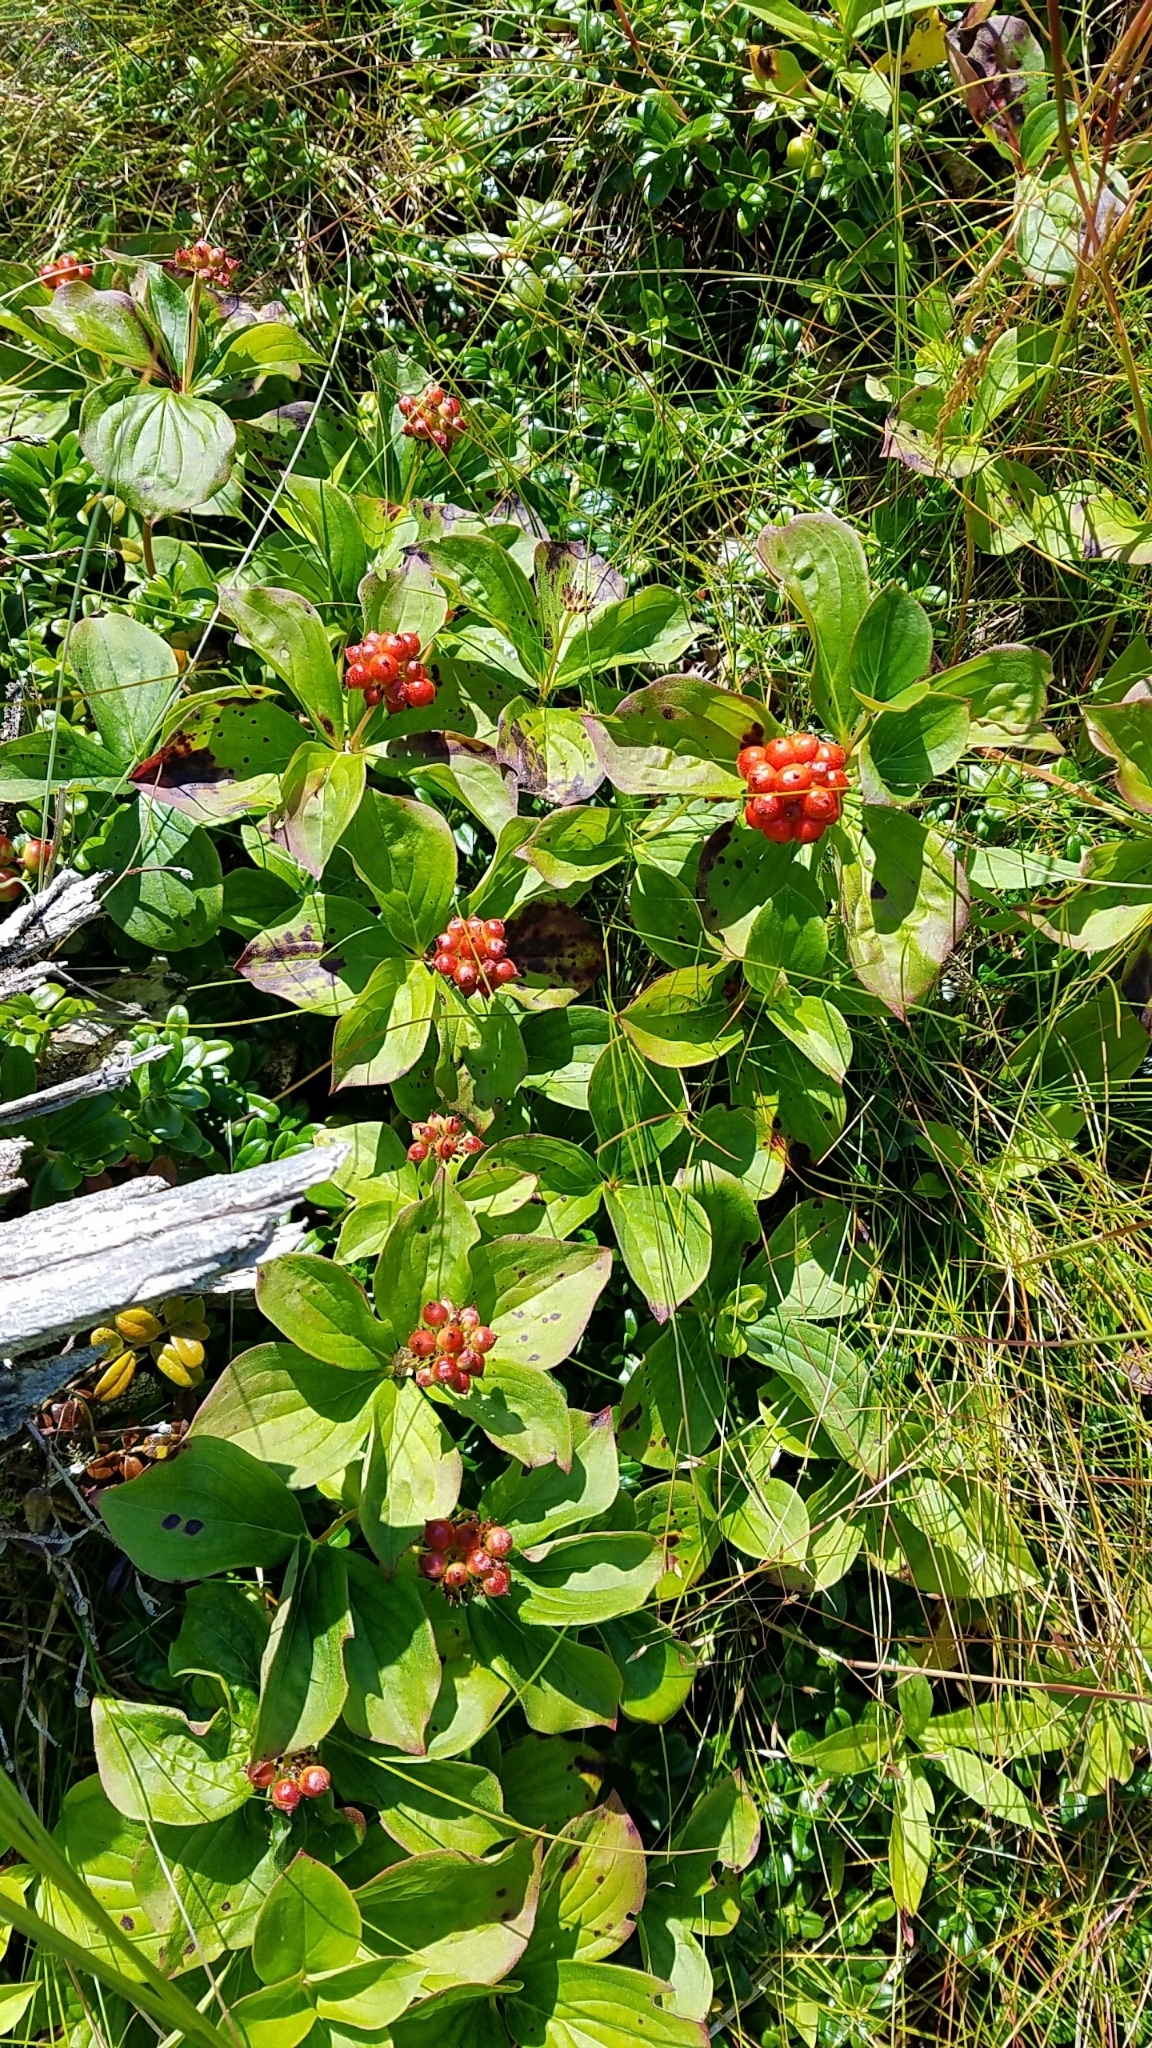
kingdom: Plantae
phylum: Tracheophyta
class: Magnoliopsida
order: Cornales
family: Cornaceae
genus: Cornus
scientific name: Cornus canadensis
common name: Creeping dogwood
